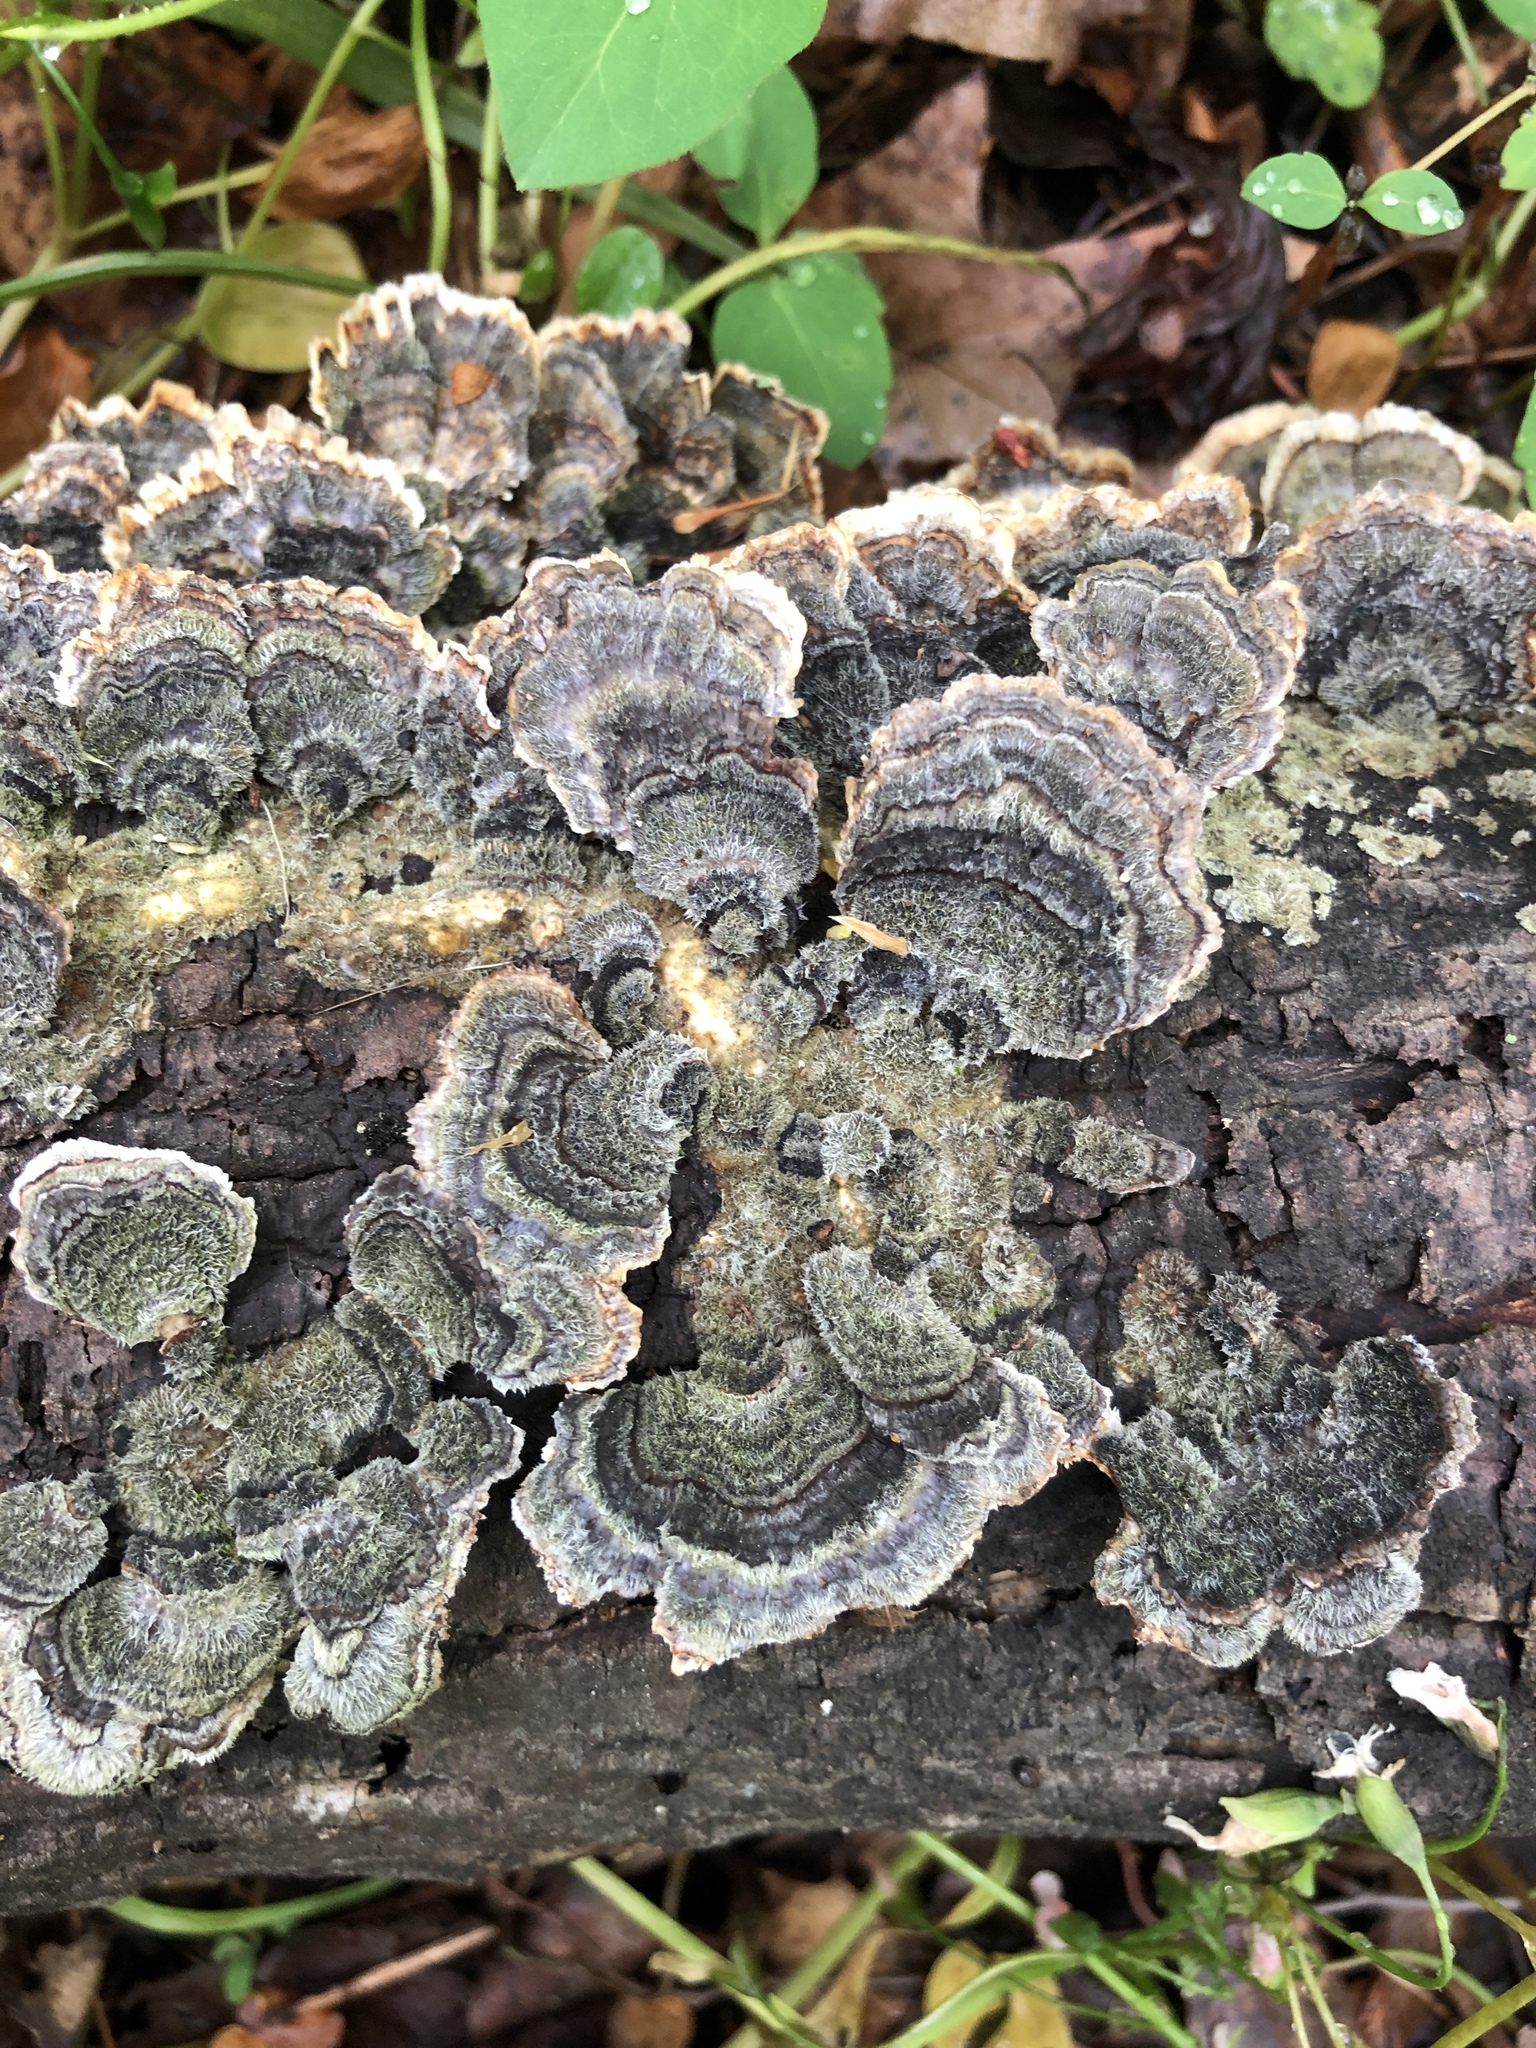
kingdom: Fungi
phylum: Basidiomycota
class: Agaricomycetes
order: Polyporales
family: Polyporaceae
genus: Trametes
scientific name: Trametes versicolor
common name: Turkeytail
